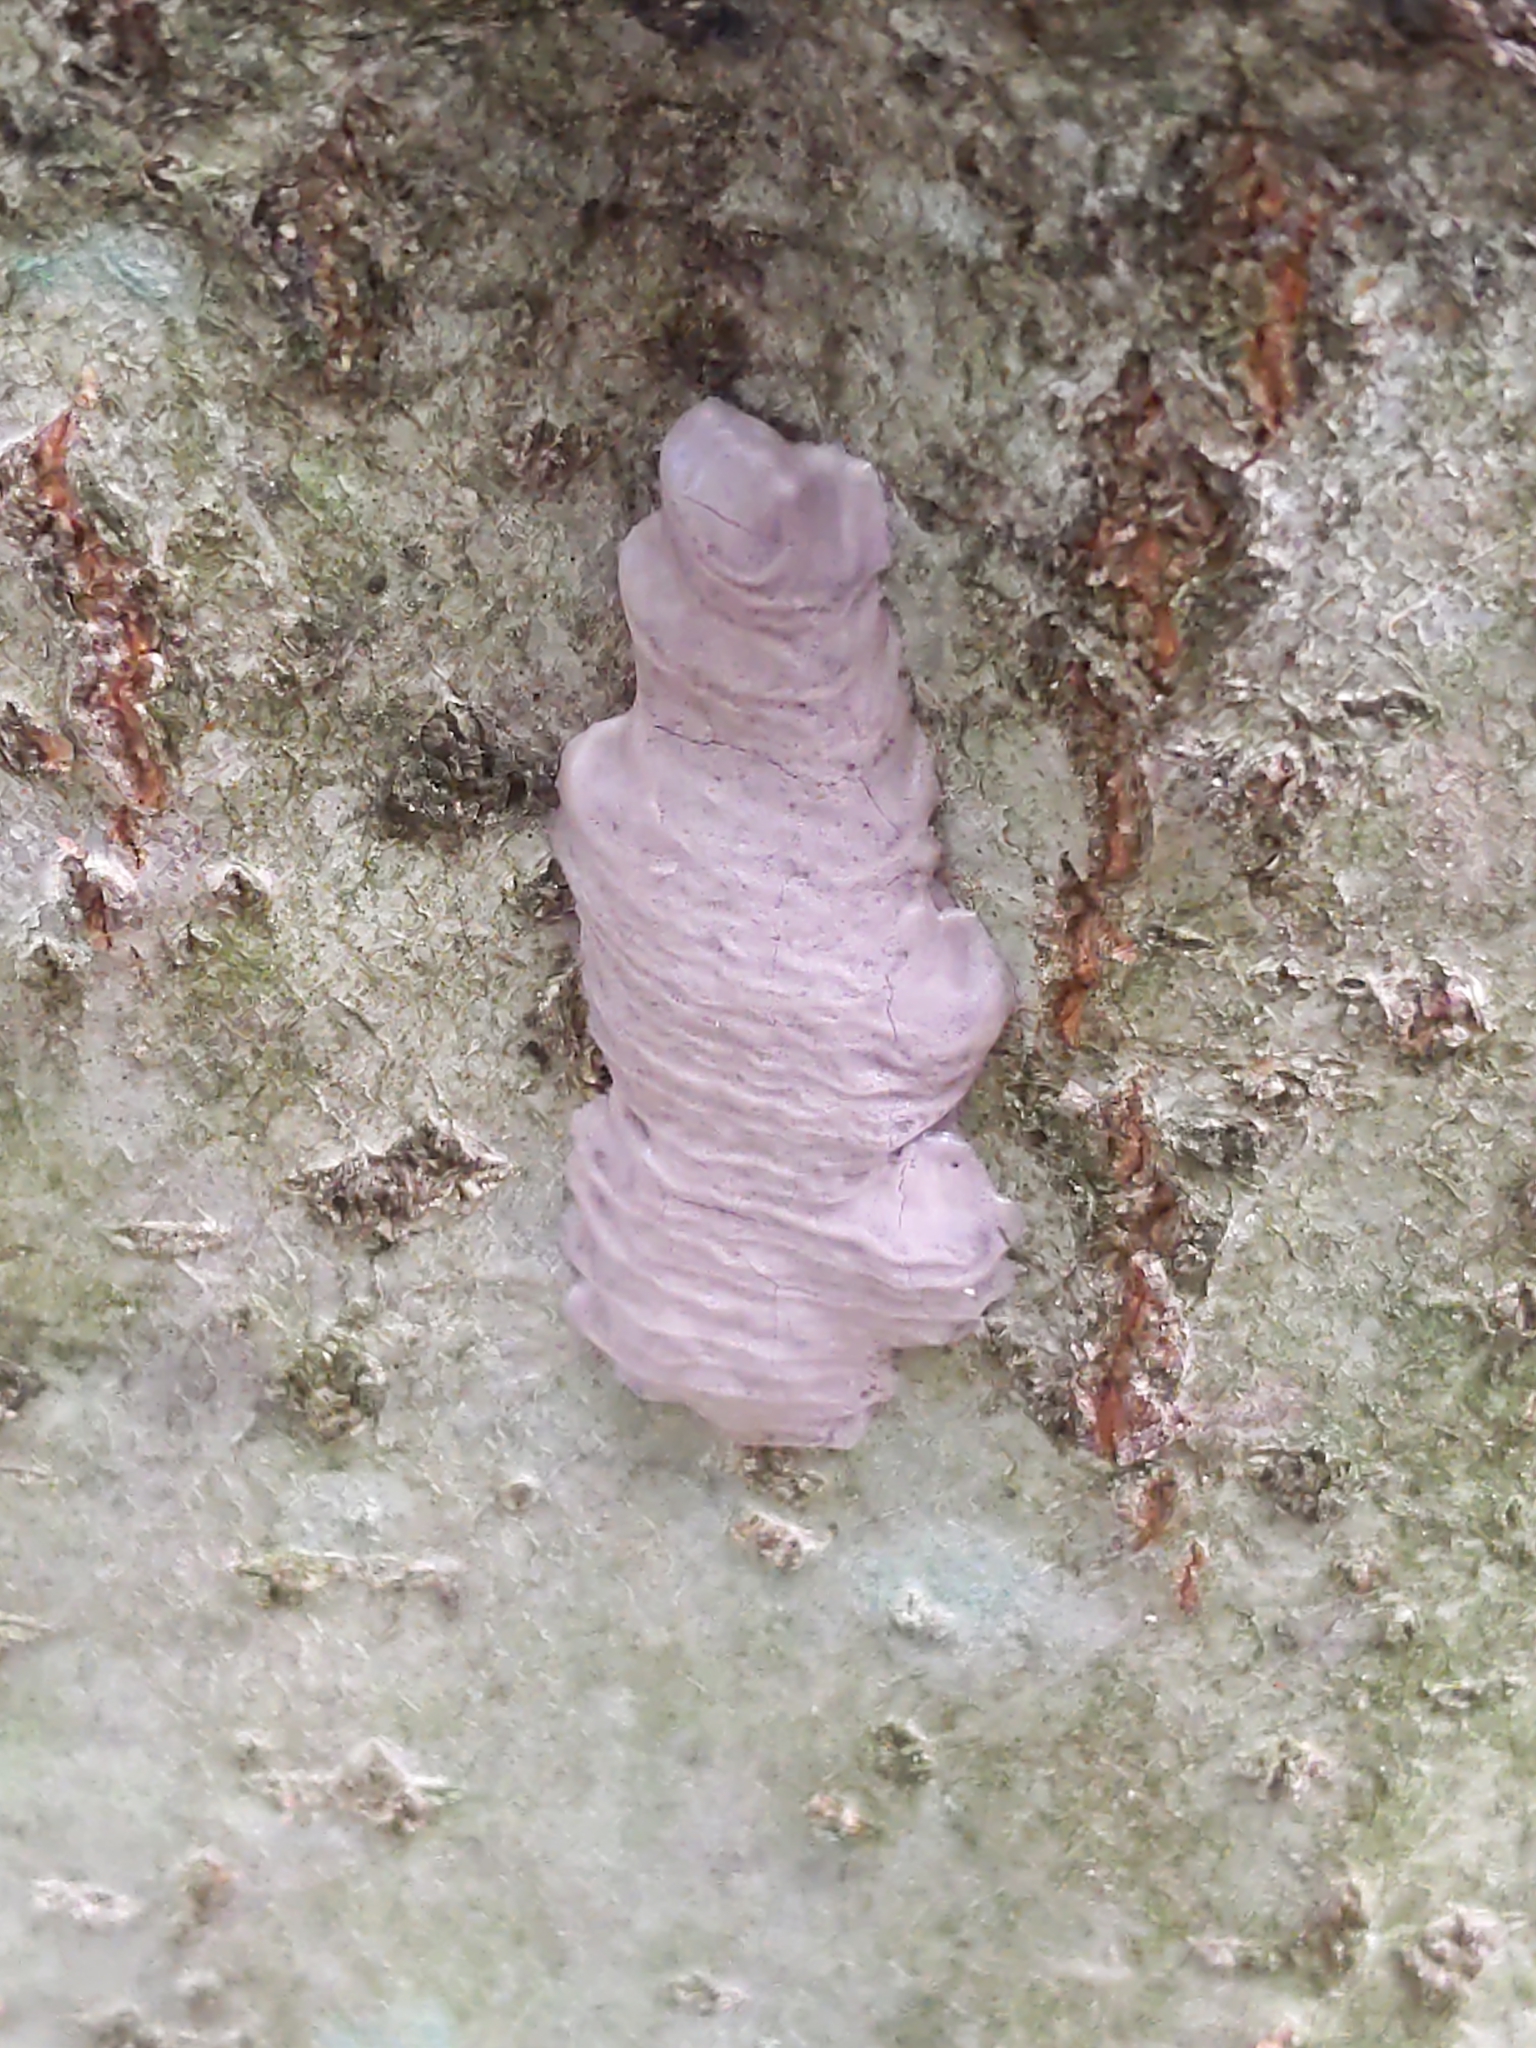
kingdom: Animalia
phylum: Arthropoda
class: Insecta
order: Hemiptera
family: Fulgoridae
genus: Lycorma
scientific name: Lycorma delicatula
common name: Spotted lanternfly
